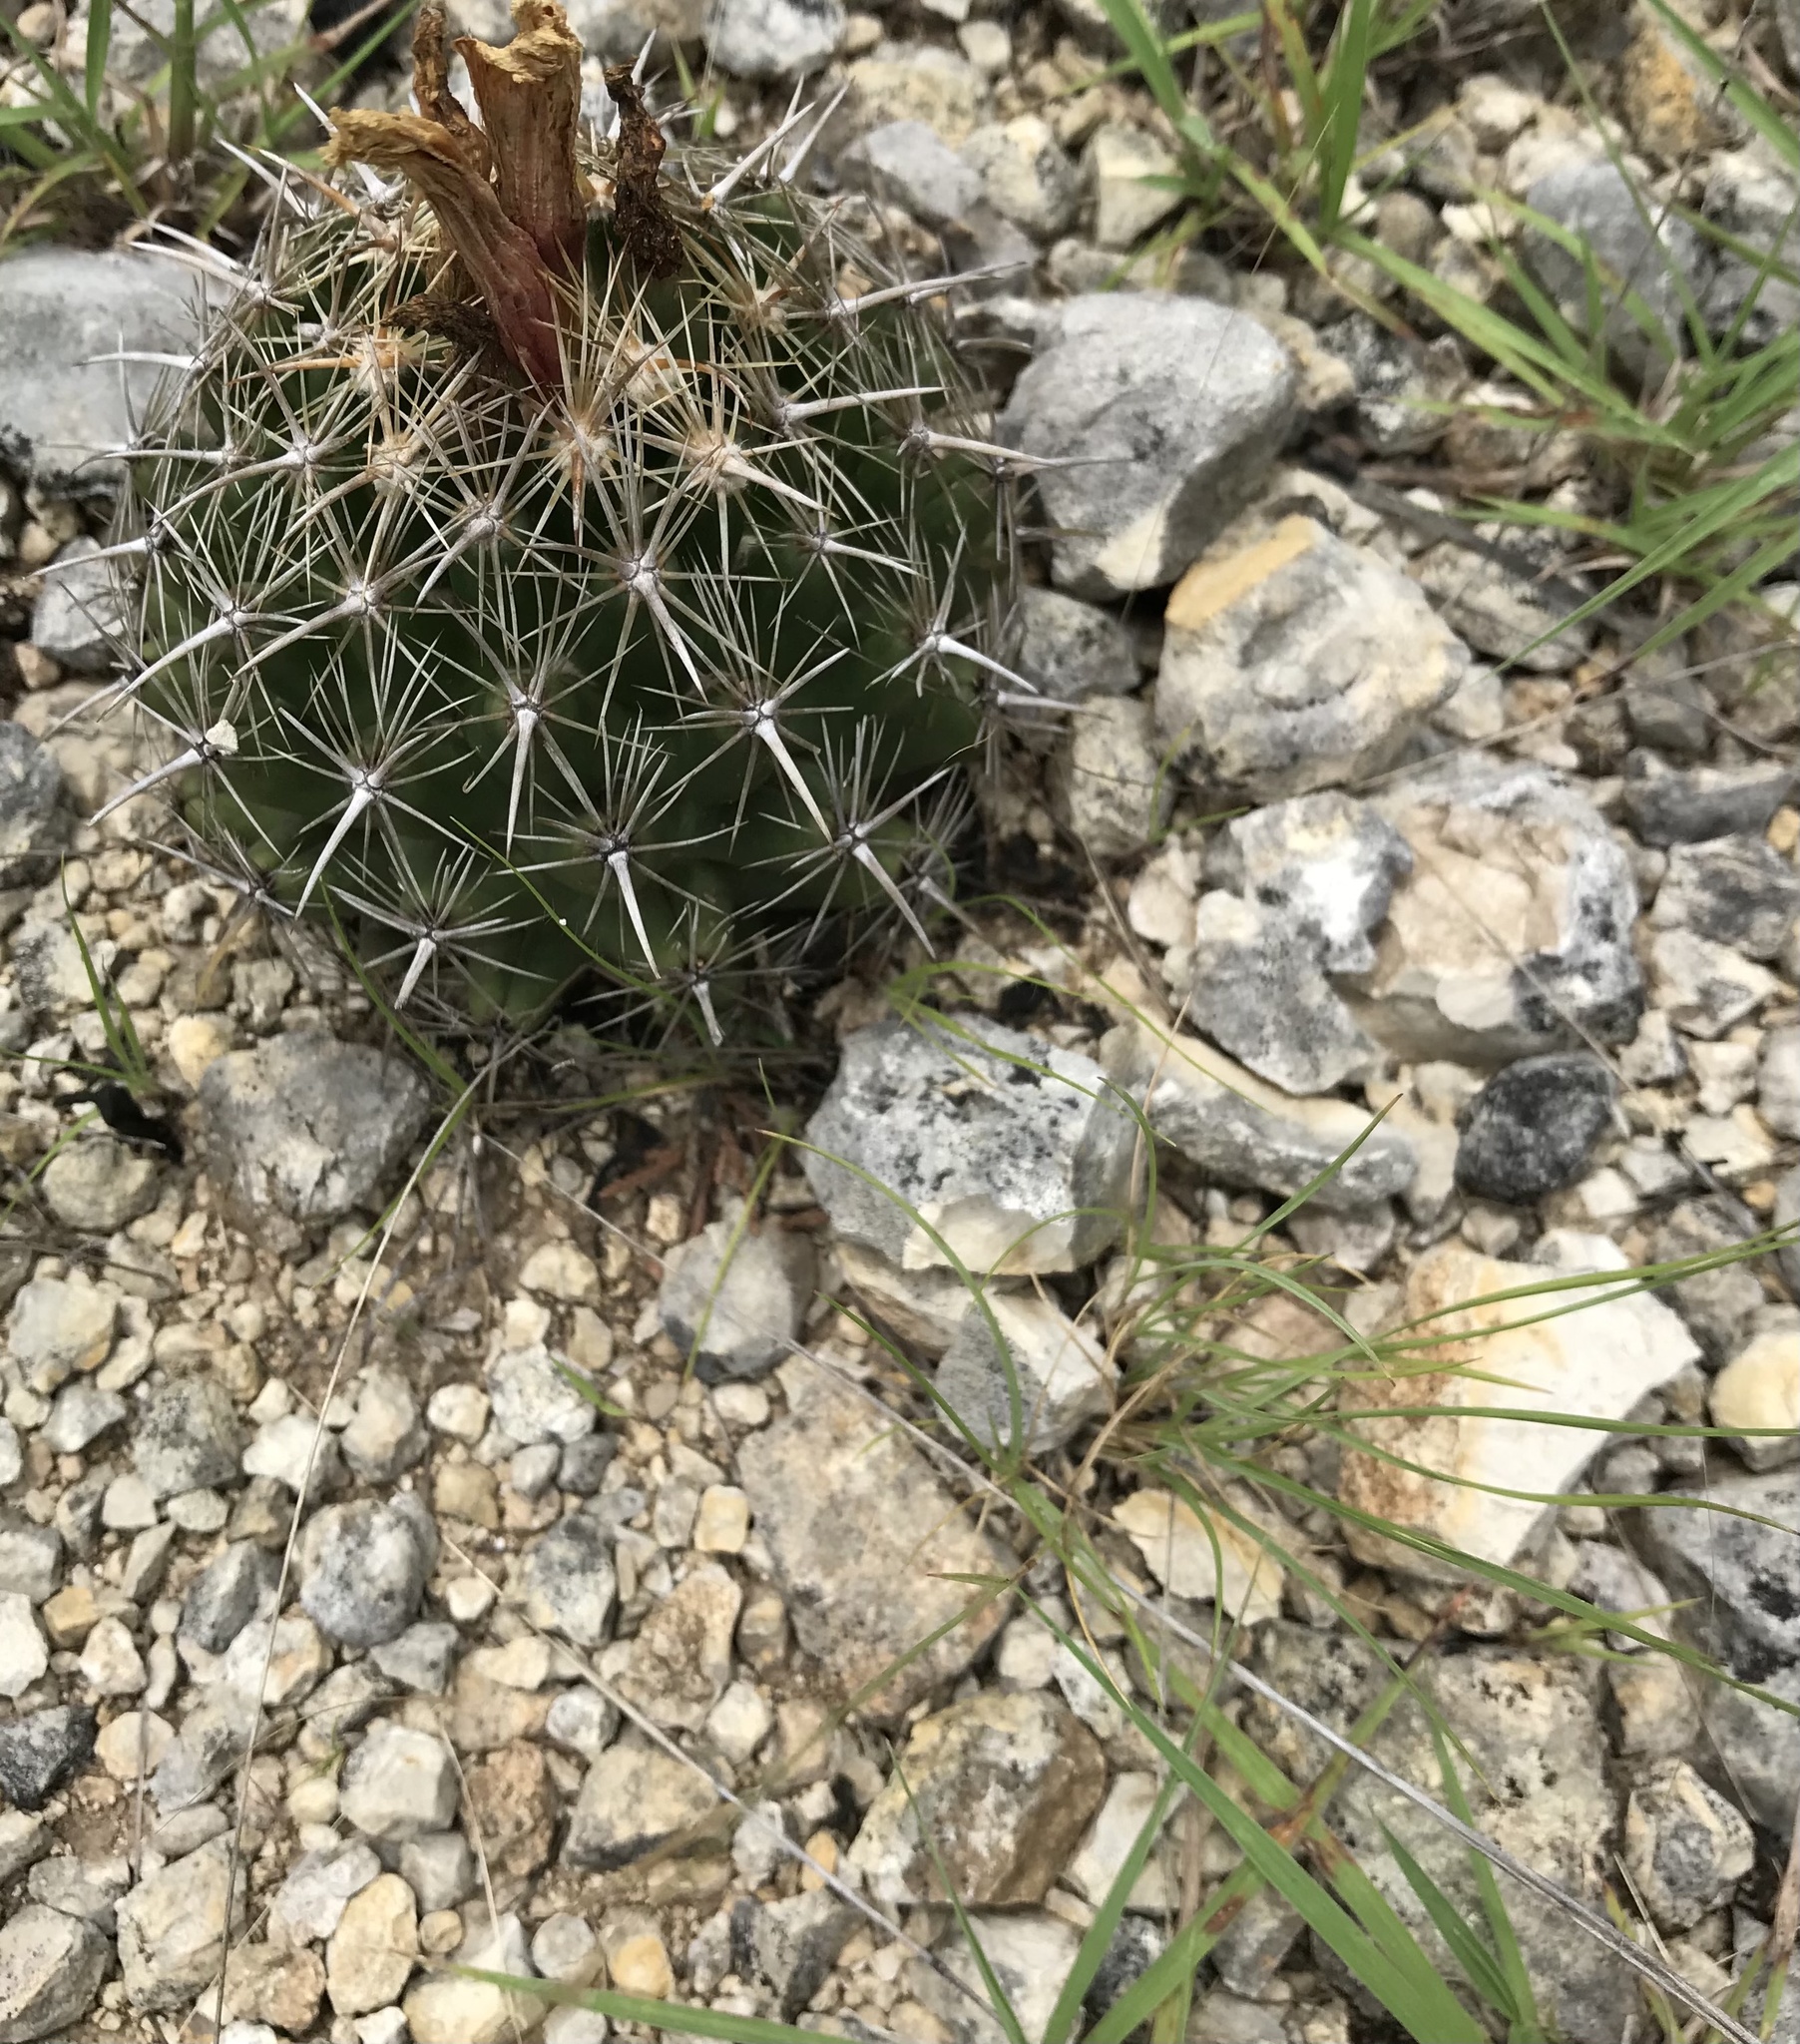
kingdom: Plantae
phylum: Tracheophyta
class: Magnoliopsida
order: Caryophyllales
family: Cactaceae
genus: Coryphantha
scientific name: Coryphantha sulcata
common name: Finger cactus
